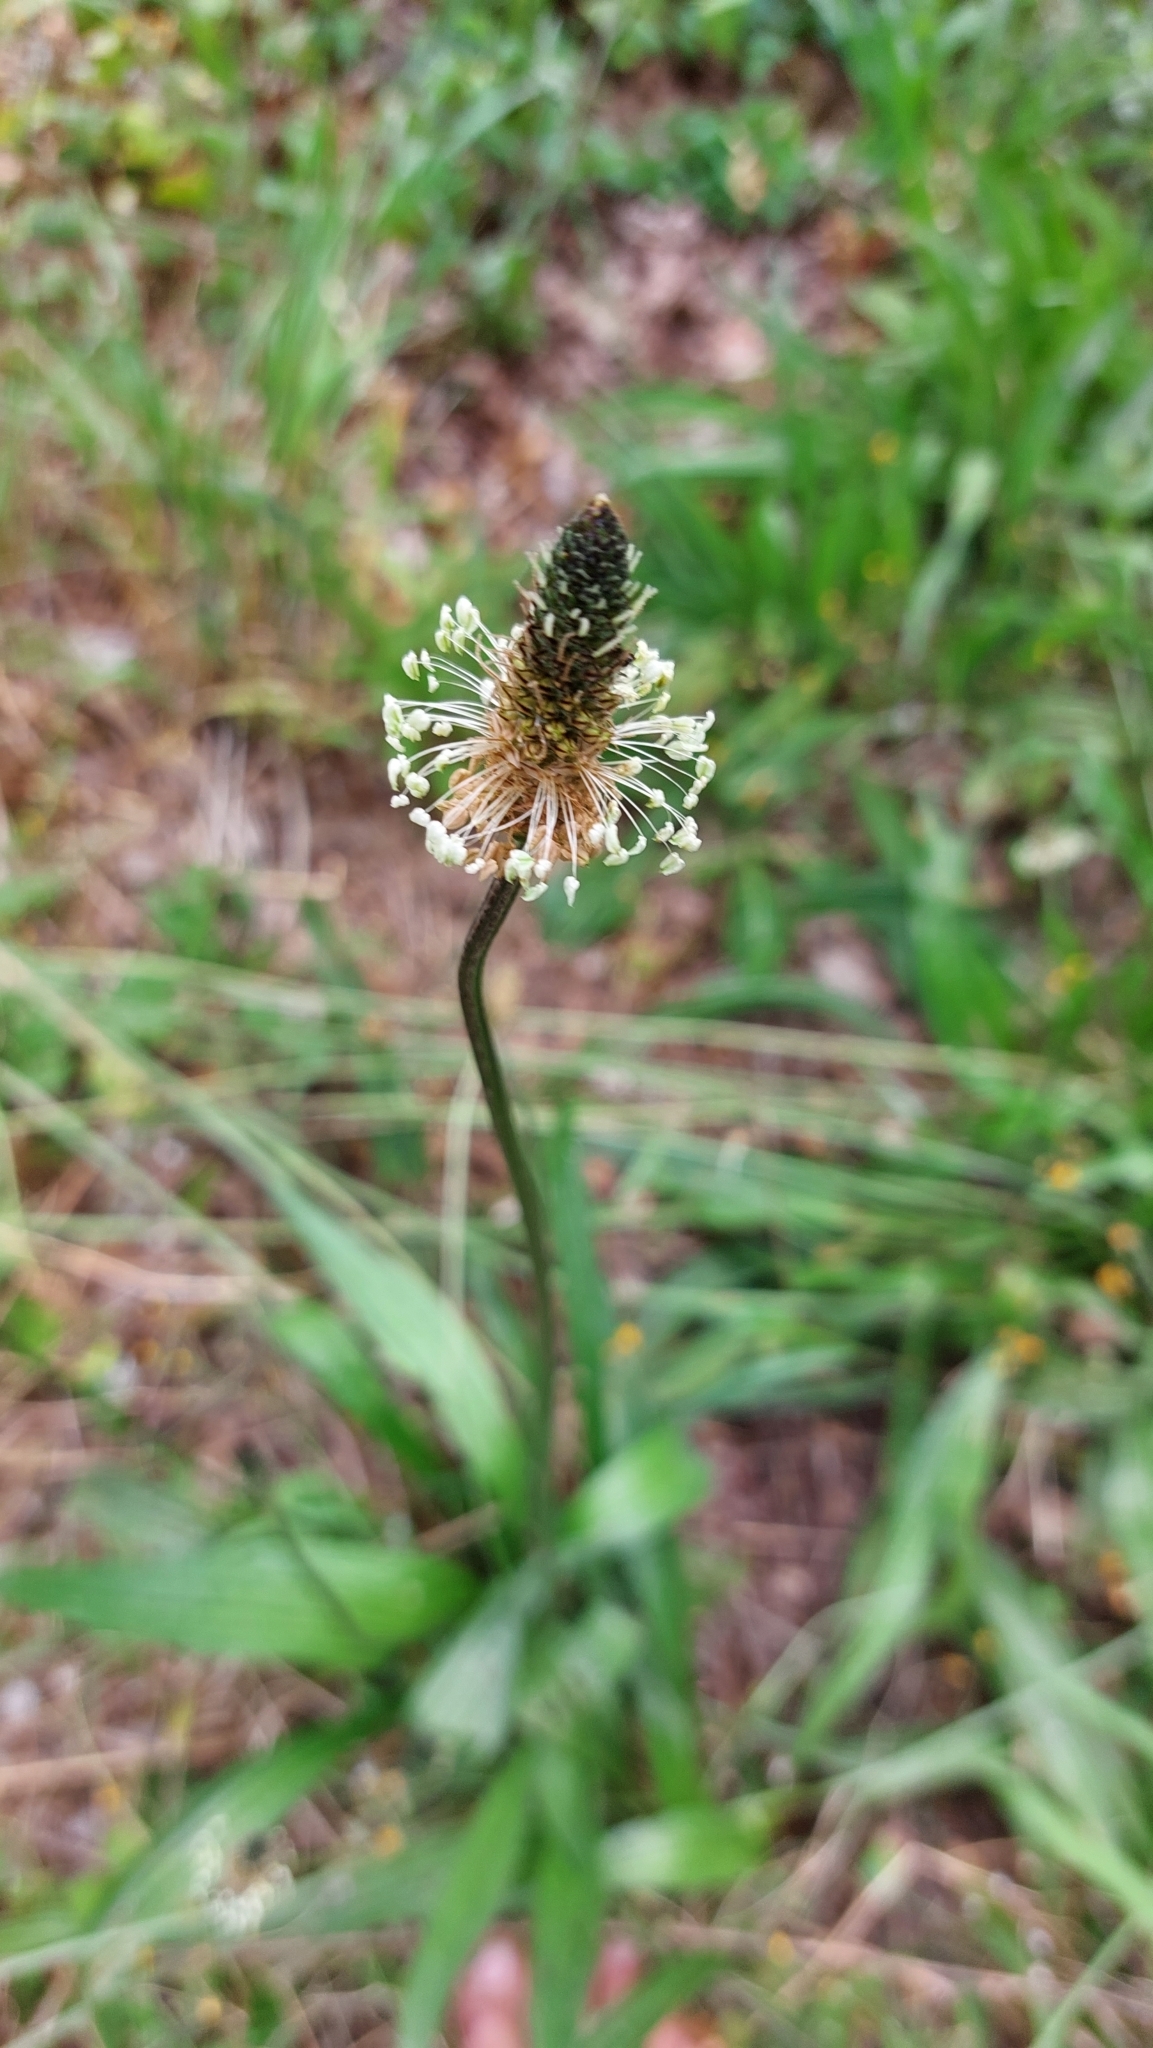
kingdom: Plantae
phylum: Tracheophyta
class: Magnoliopsida
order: Lamiales
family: Plantaginaceae
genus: Plantago
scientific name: Plantago lanceolata
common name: Ribwort plantain
